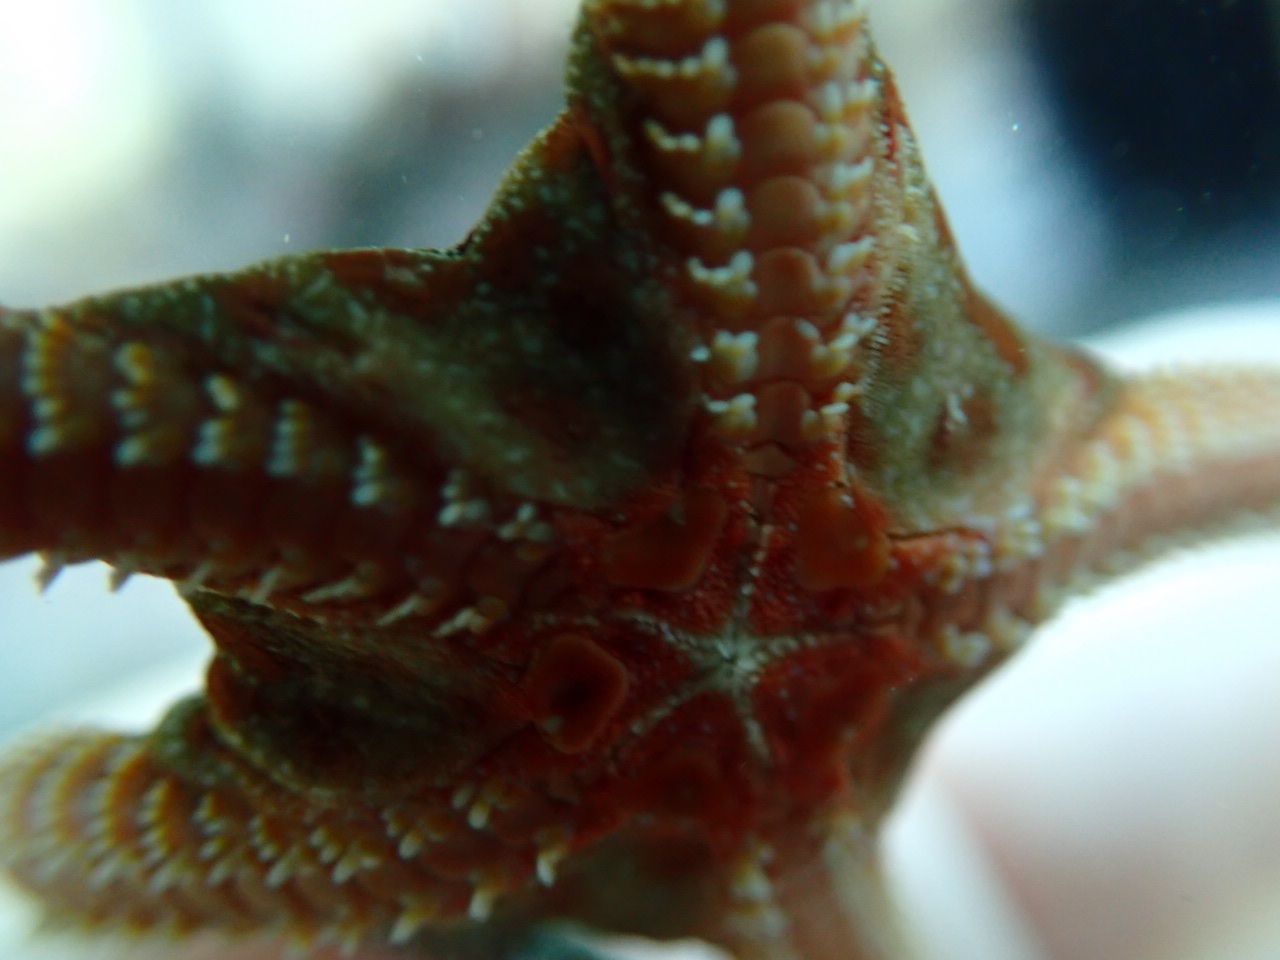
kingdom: Animalia
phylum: Echinodermata
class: Ophiuroidea
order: Ophiacanthida
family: Ophiodermatidae
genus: Ophioderma
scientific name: Ophioderma longicaudum
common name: Smooth brittle-star
